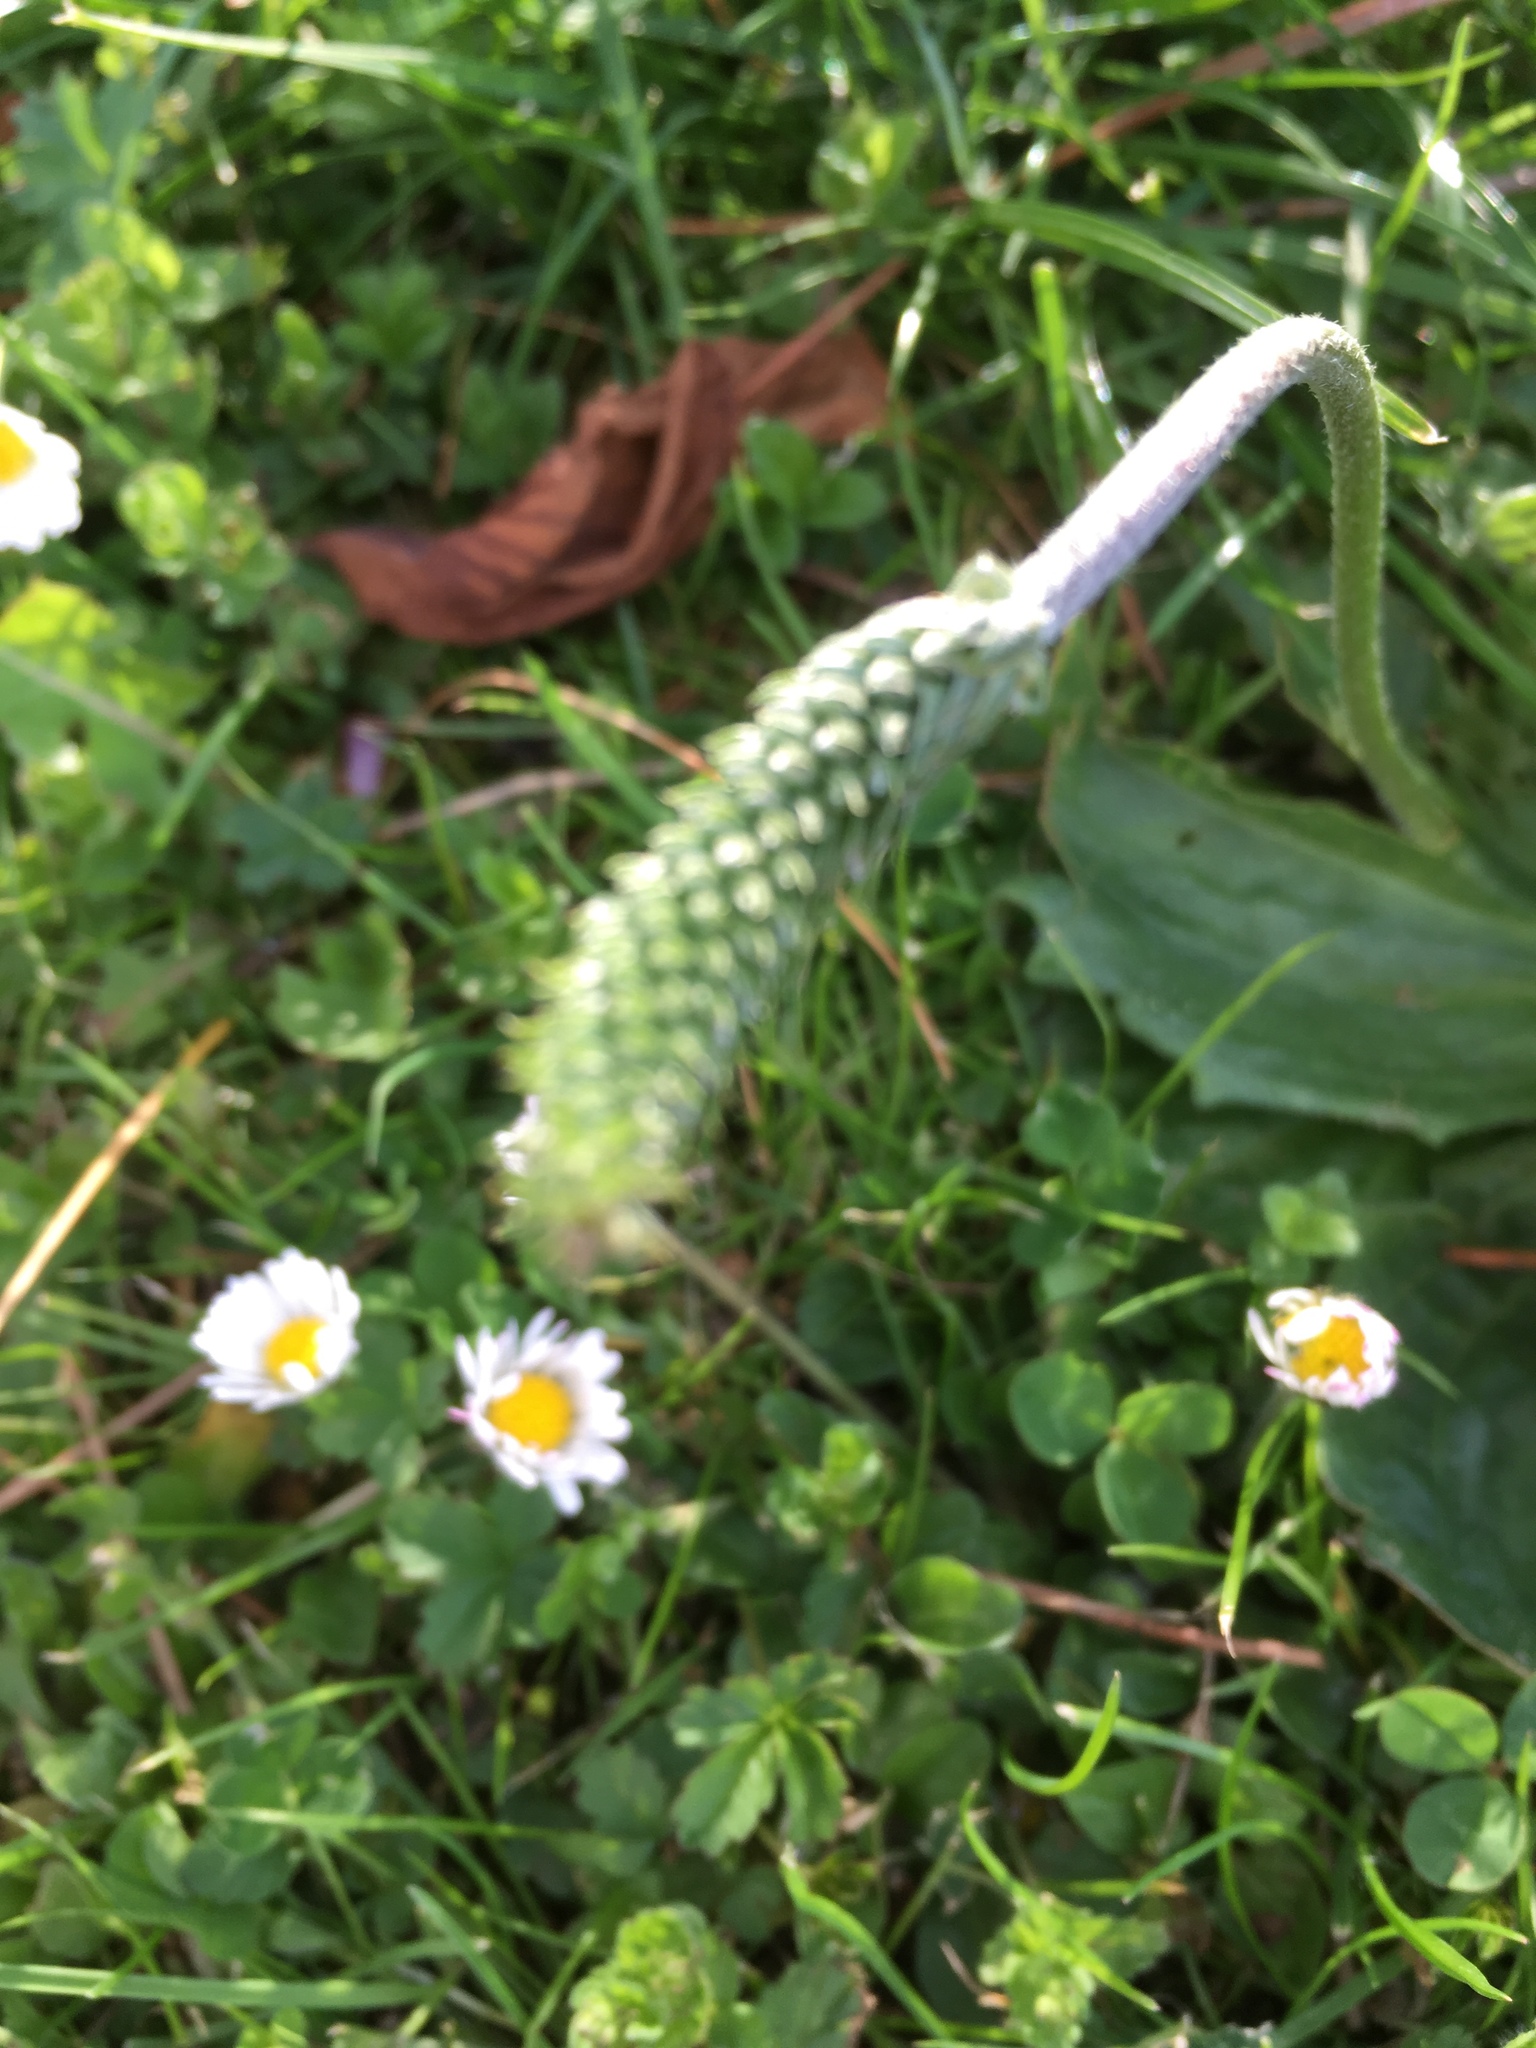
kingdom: Plantae
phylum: Tracheophyta
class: Magnoliopsida
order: Lamiales
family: Plantaginaceae
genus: Plantago
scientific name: Plantago media
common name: Hoary plantain
